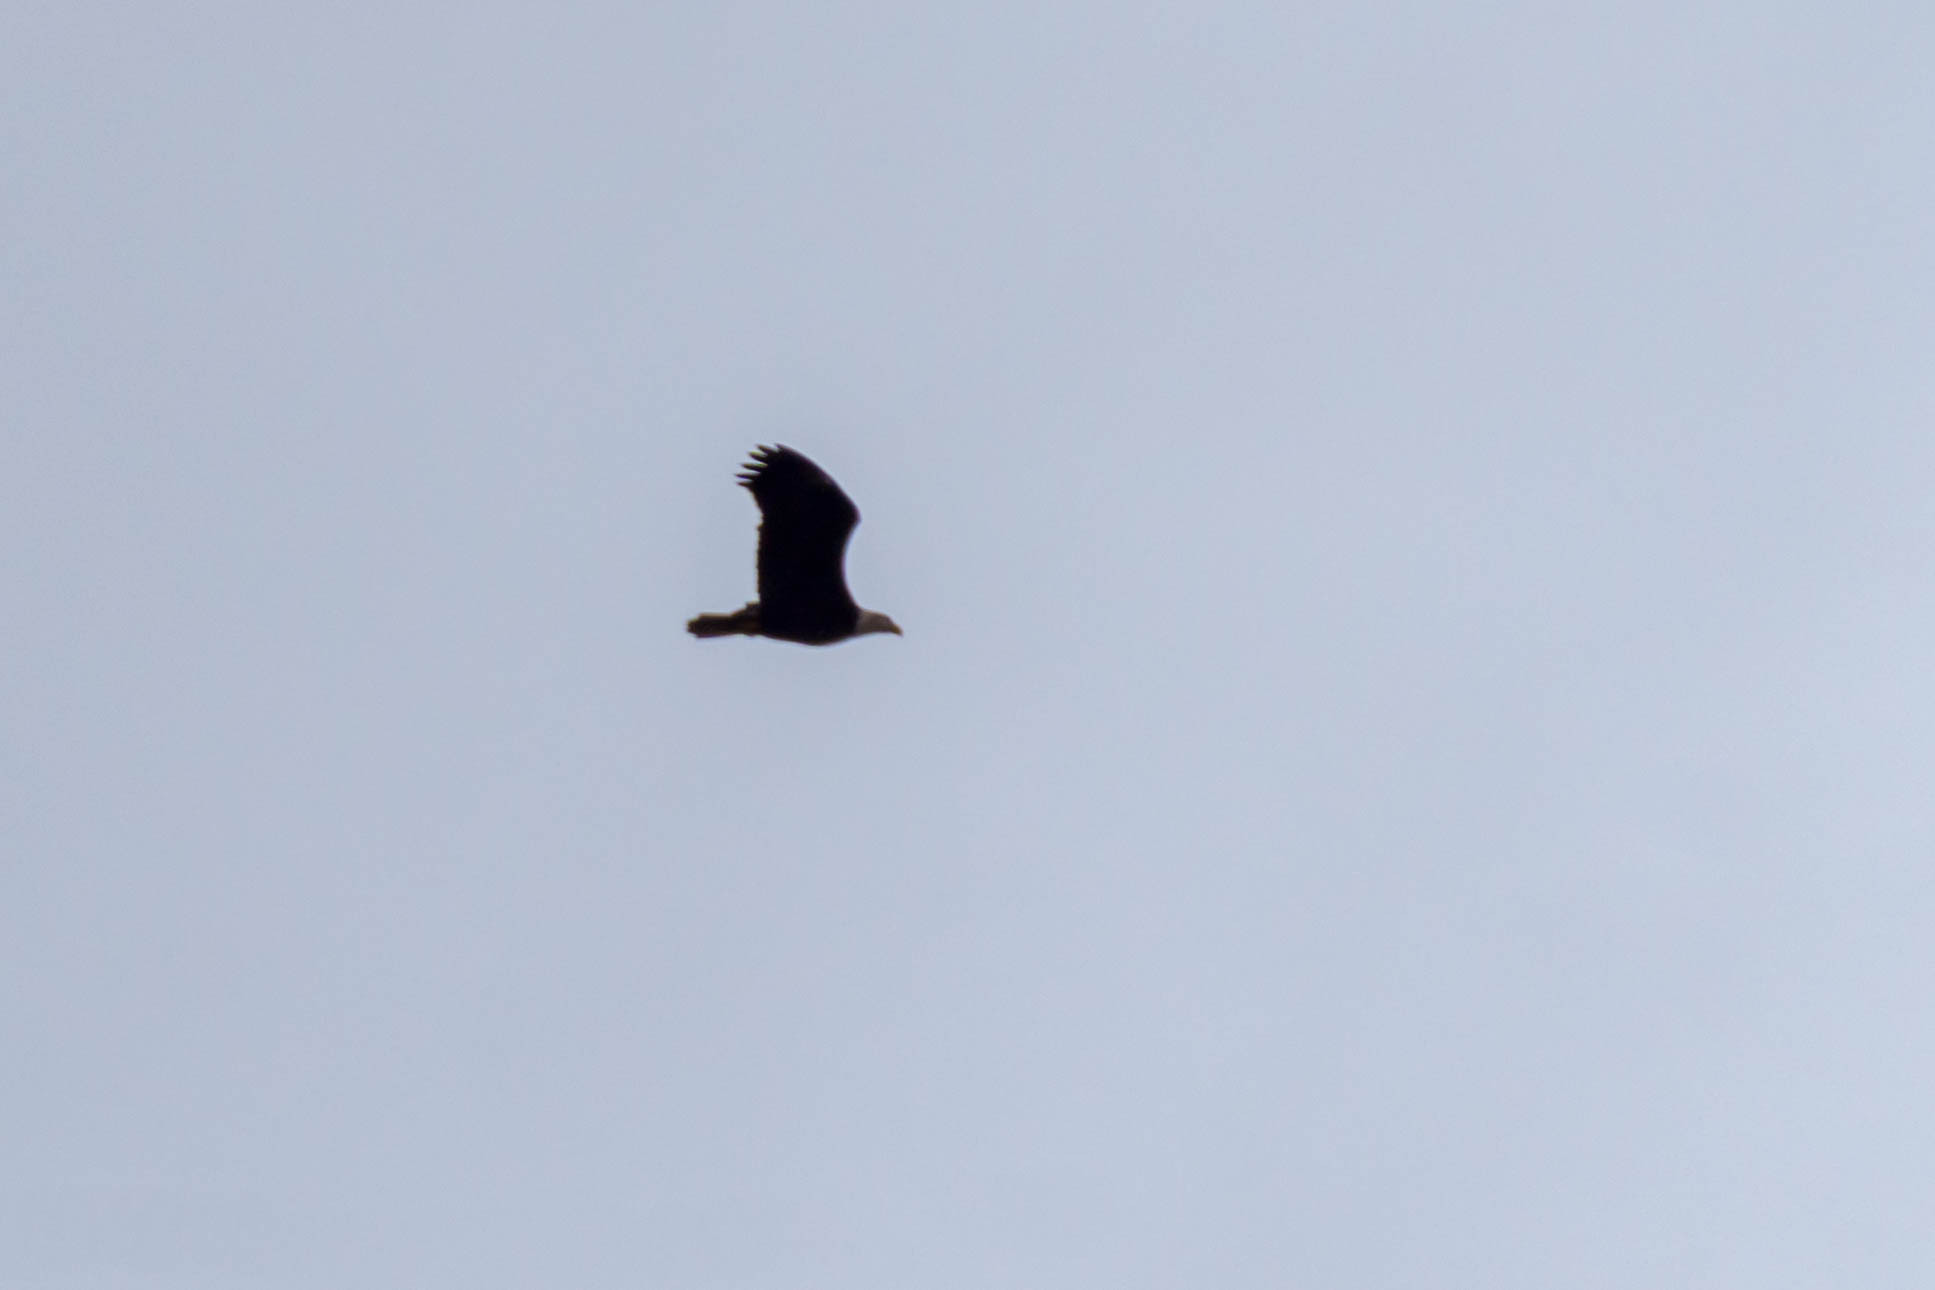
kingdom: Animalia
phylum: Chordata
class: Aves
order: Accipitriformes
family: Accipitridae
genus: Haliaeetus
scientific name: Haliaeetus leucocephalus
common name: Bald eagle
